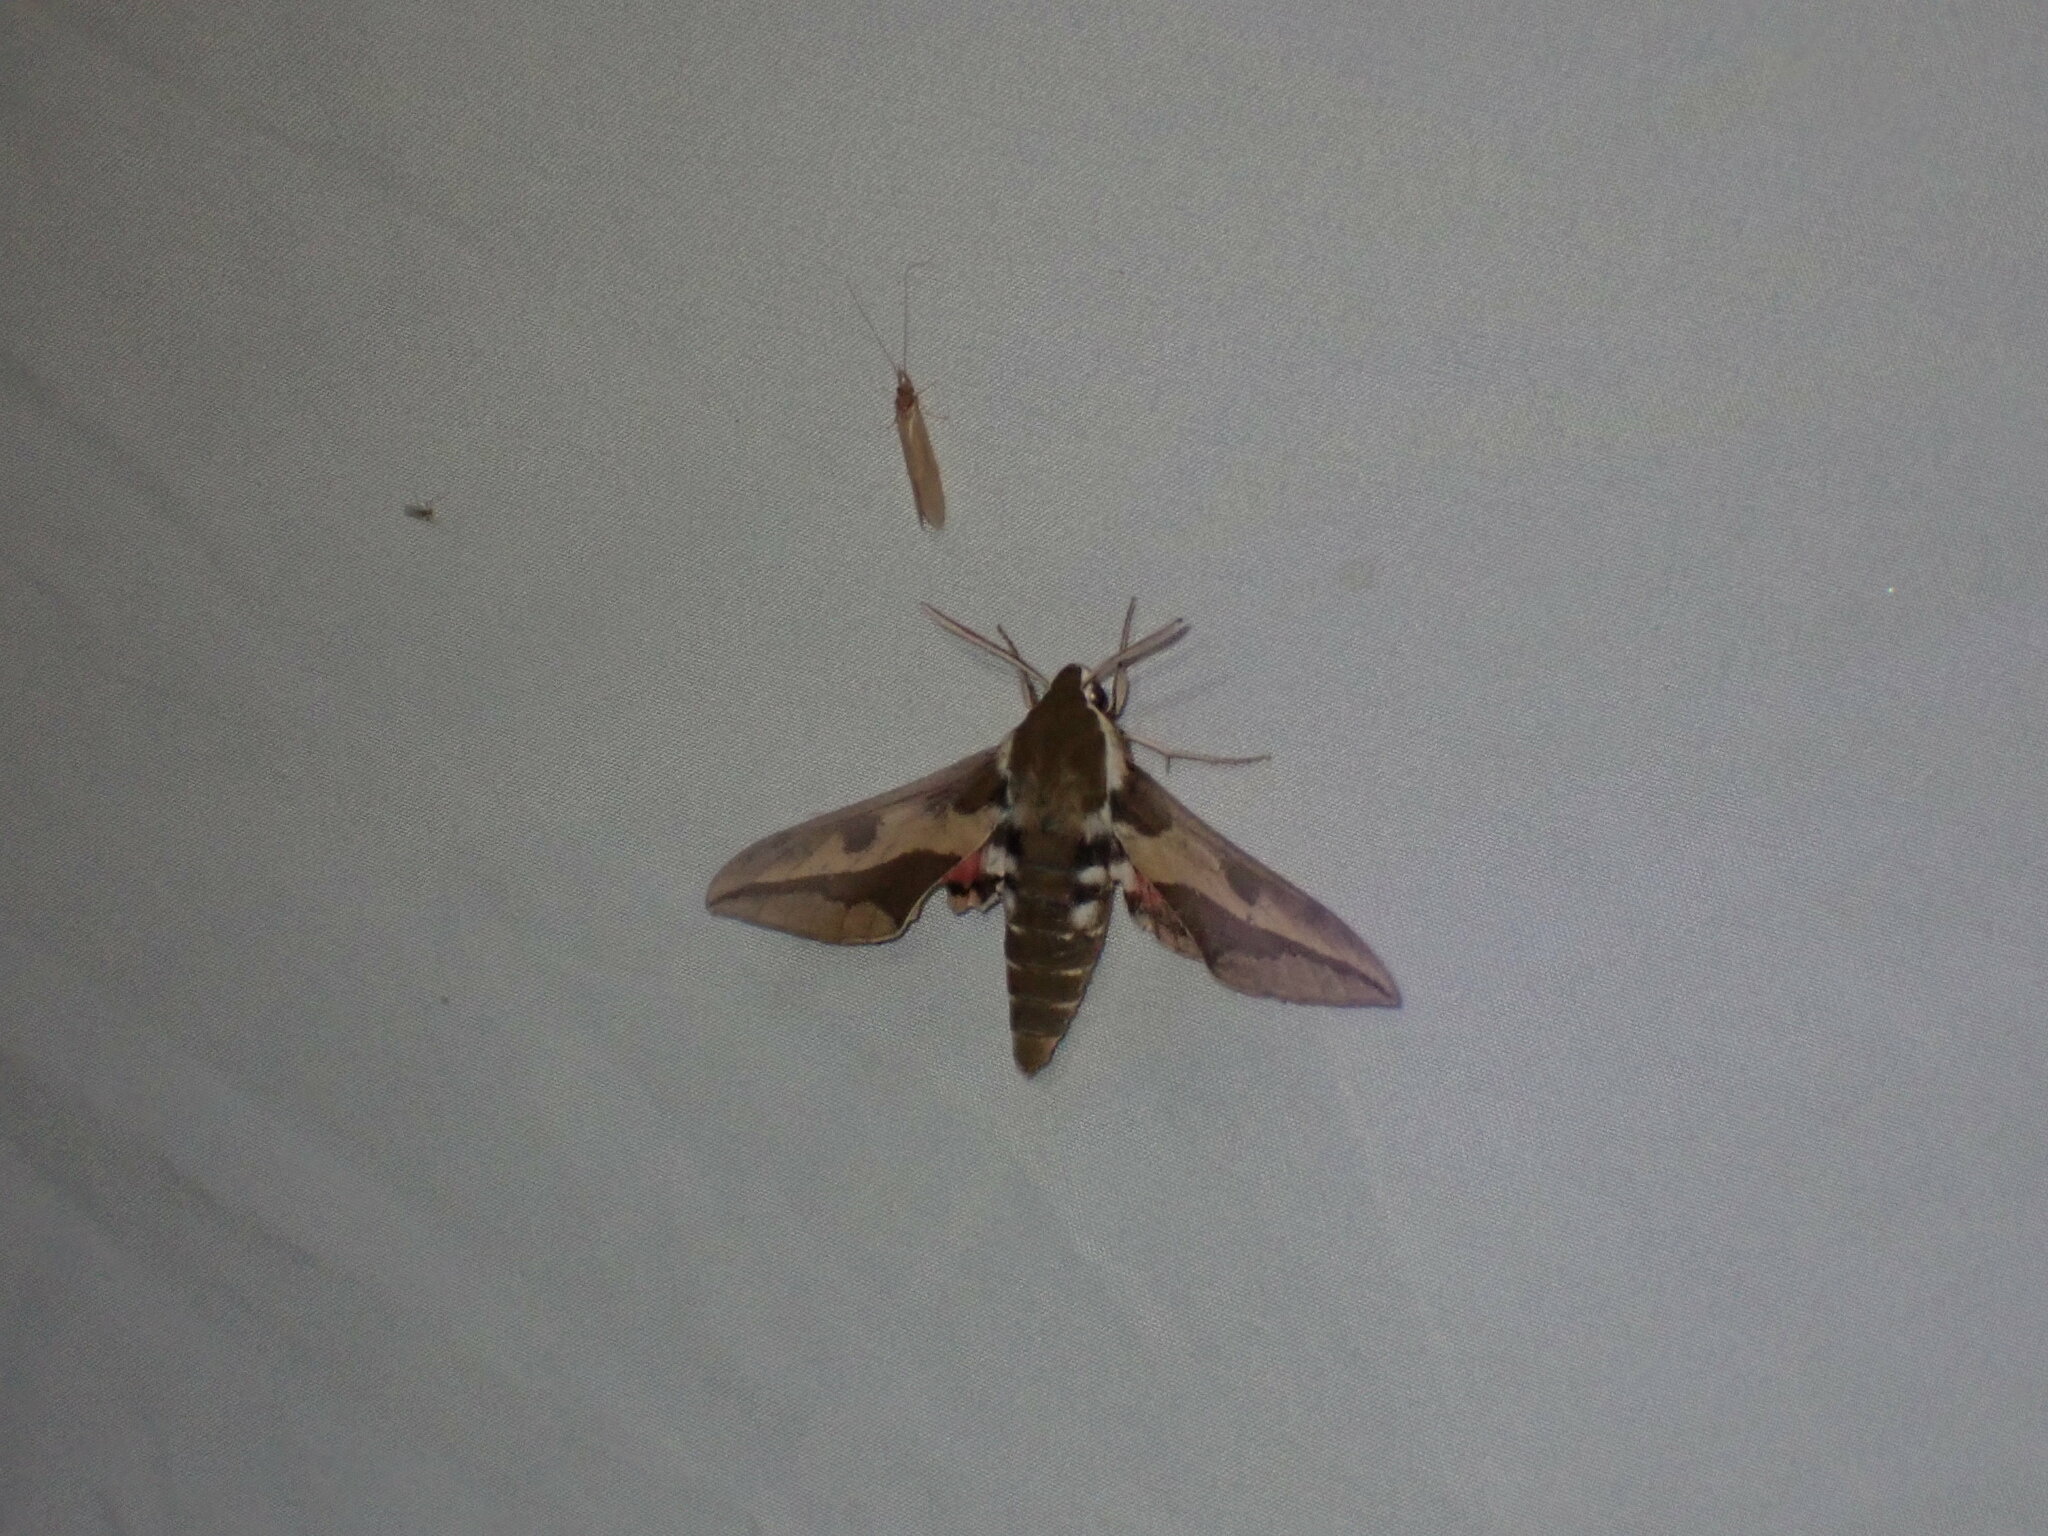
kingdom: Animalia
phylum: Arthropoda
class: Insecta
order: Lepidoptera
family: Sphingidae
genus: Hyles
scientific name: Hyles euphorbiae
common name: Spurge hawk-moth
